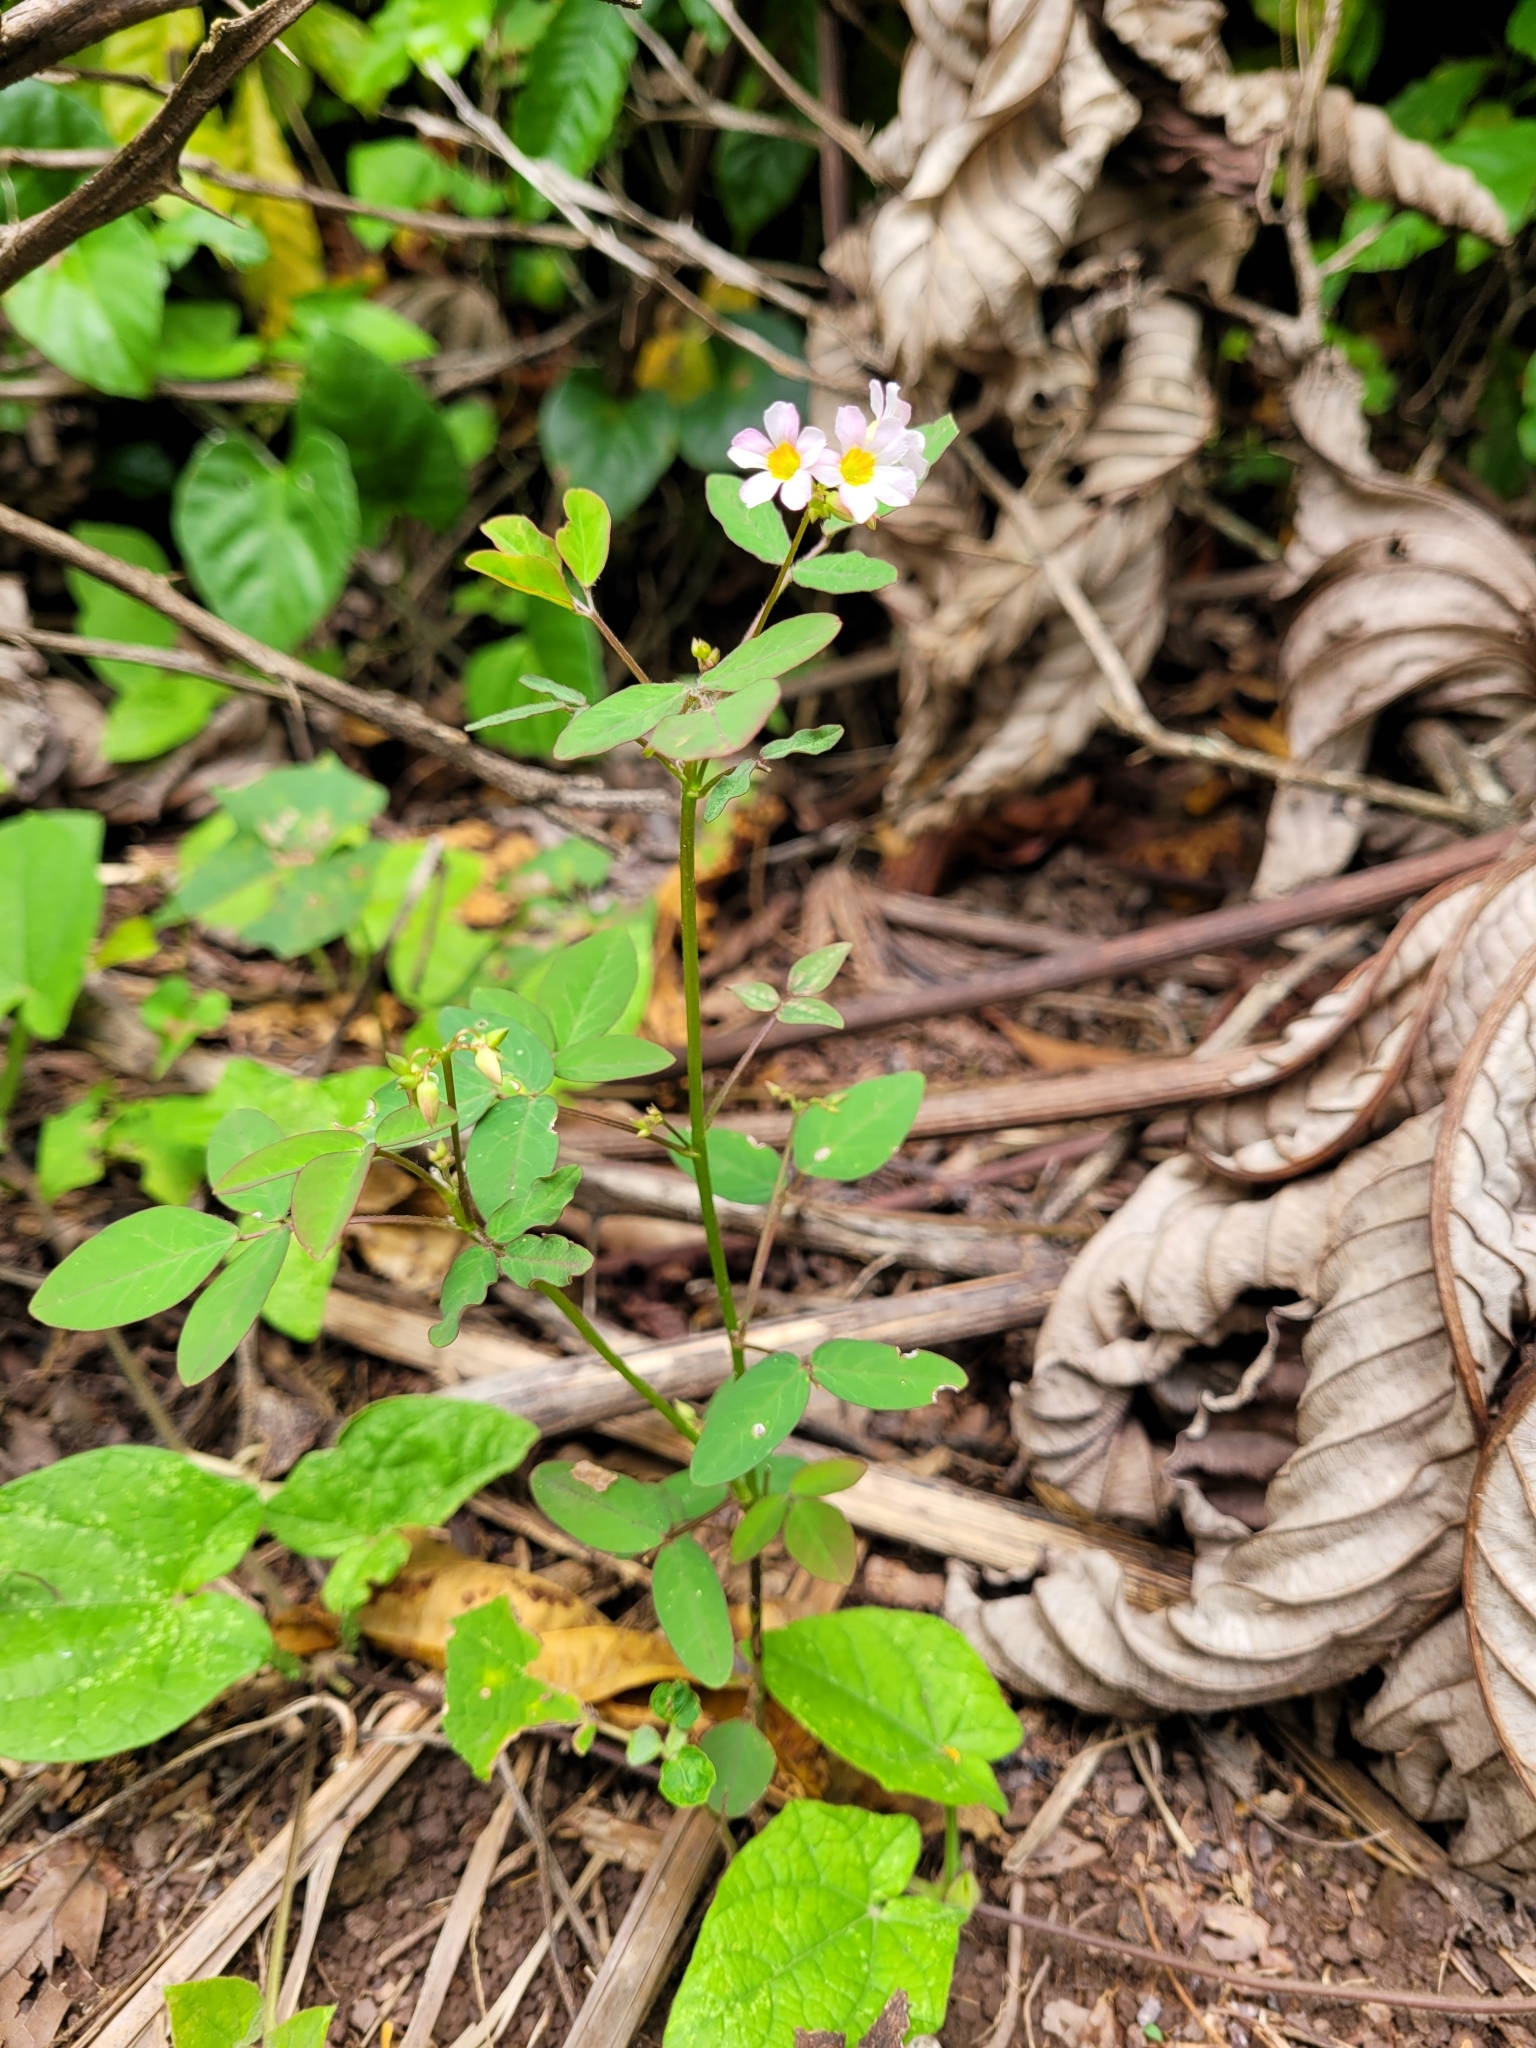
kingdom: Plantae
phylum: Tracheophyta
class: Magnoliopsida
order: Oxalidales
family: Oxalidaceae
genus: Oxalis
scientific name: Oxalis barrelieri
